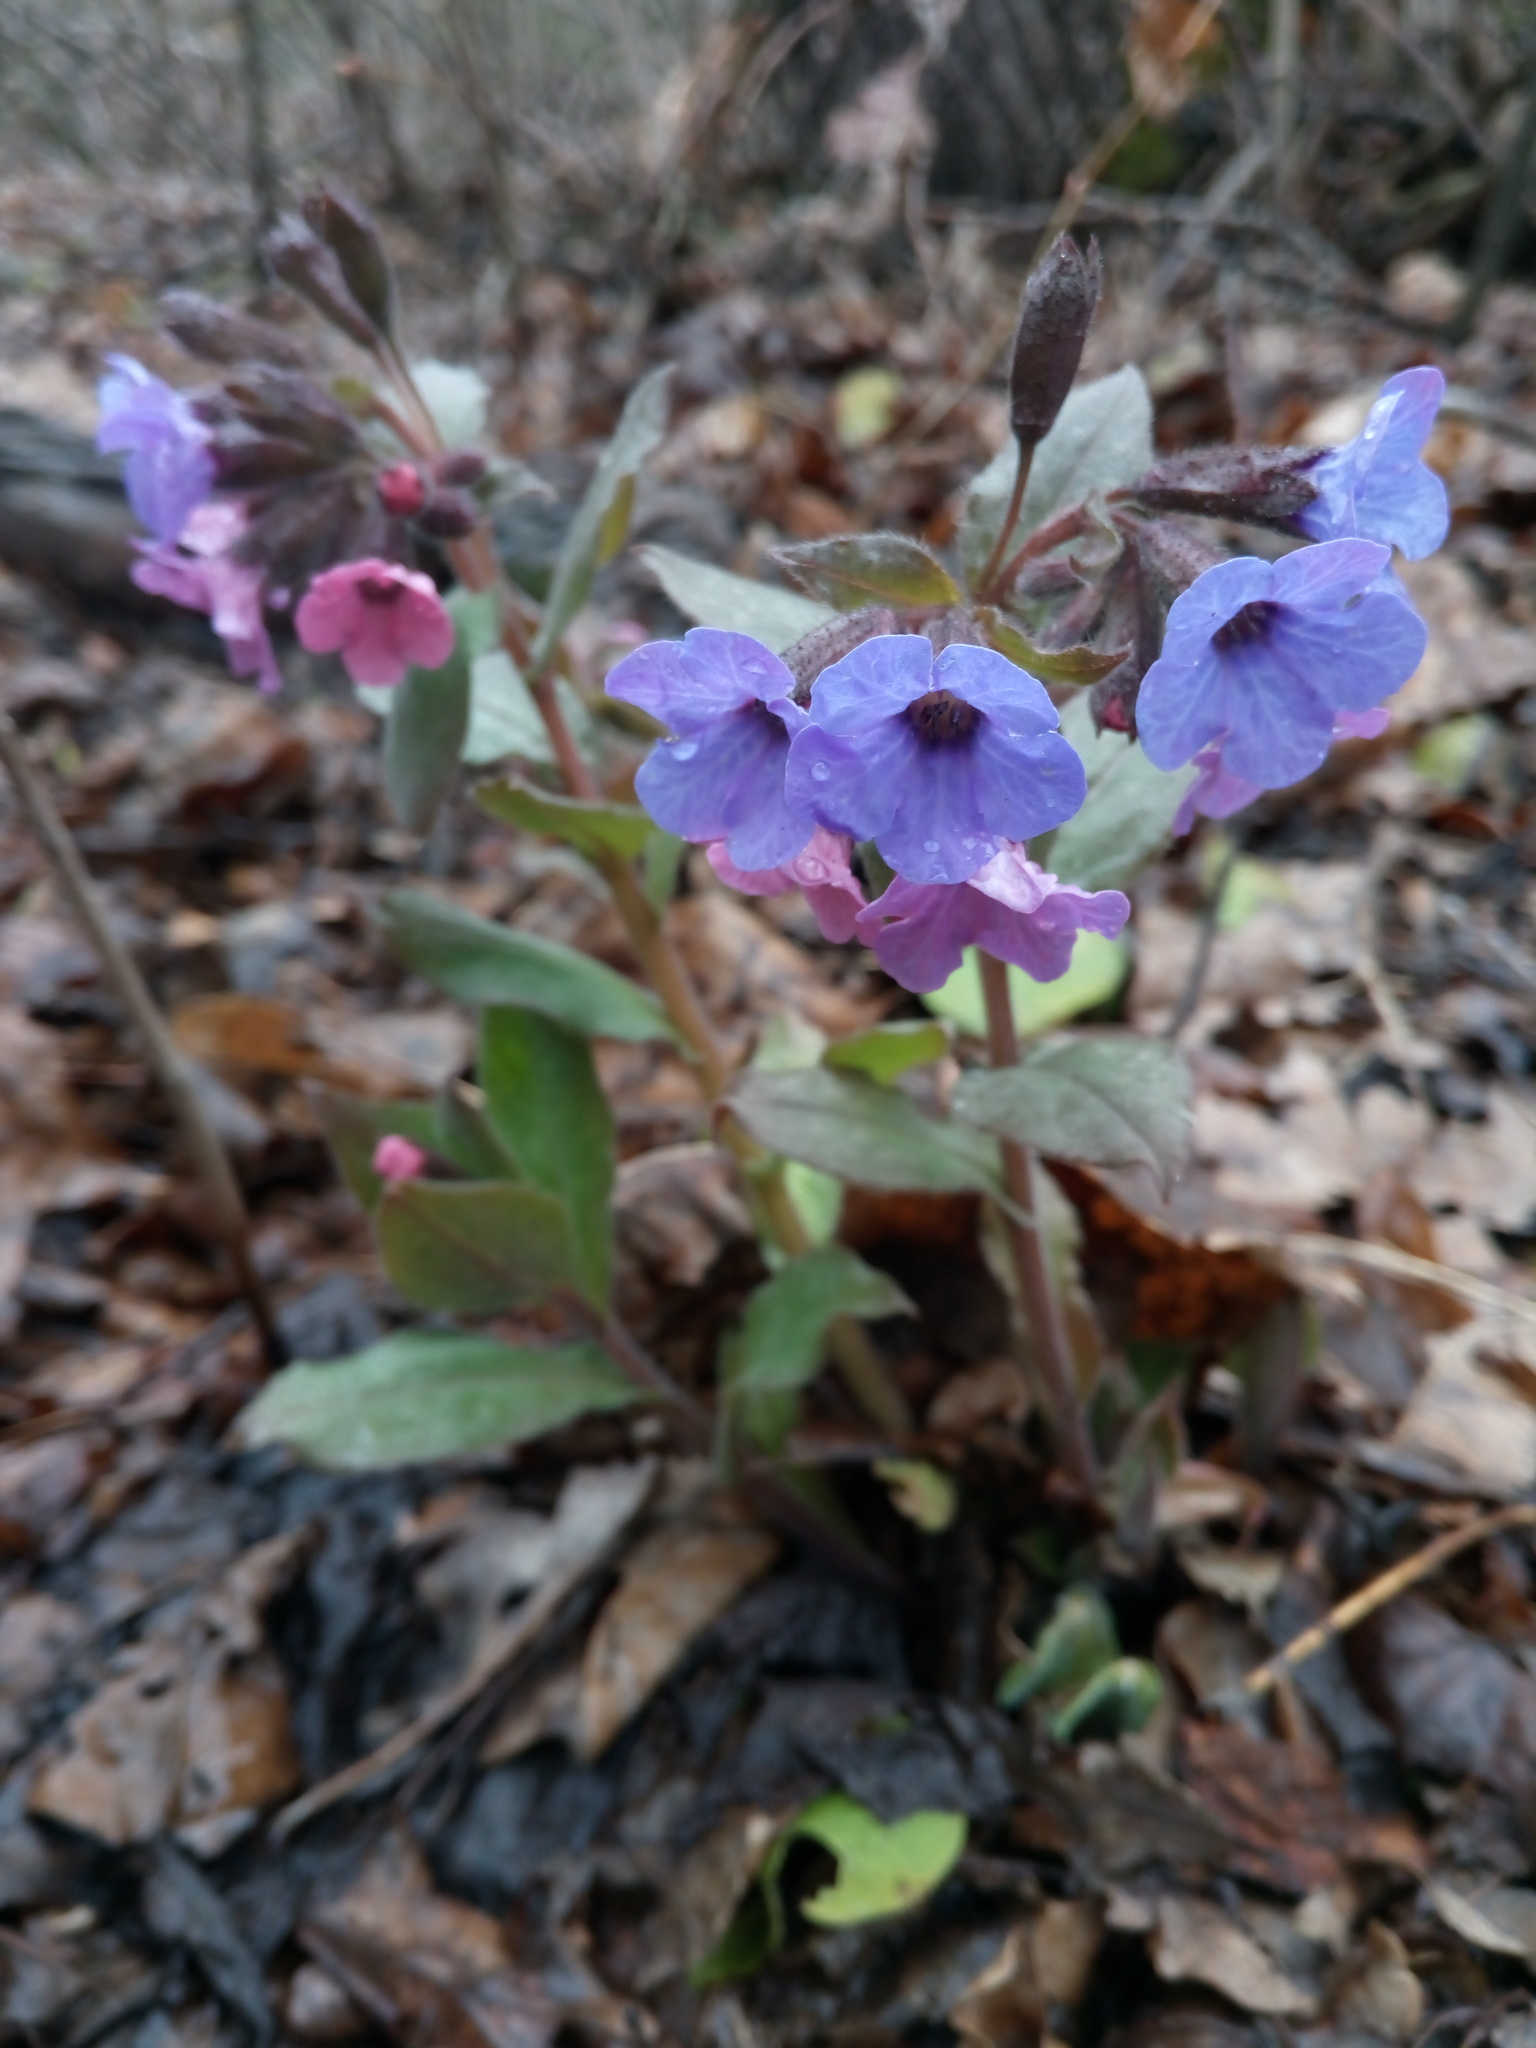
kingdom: Plantae
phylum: Tracheophyta
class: Magnoliopsida
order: Boraginales
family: Boraginaceae
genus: Pulmonaria
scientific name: Pulmonaria obscura
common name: Suffolk lungwort
